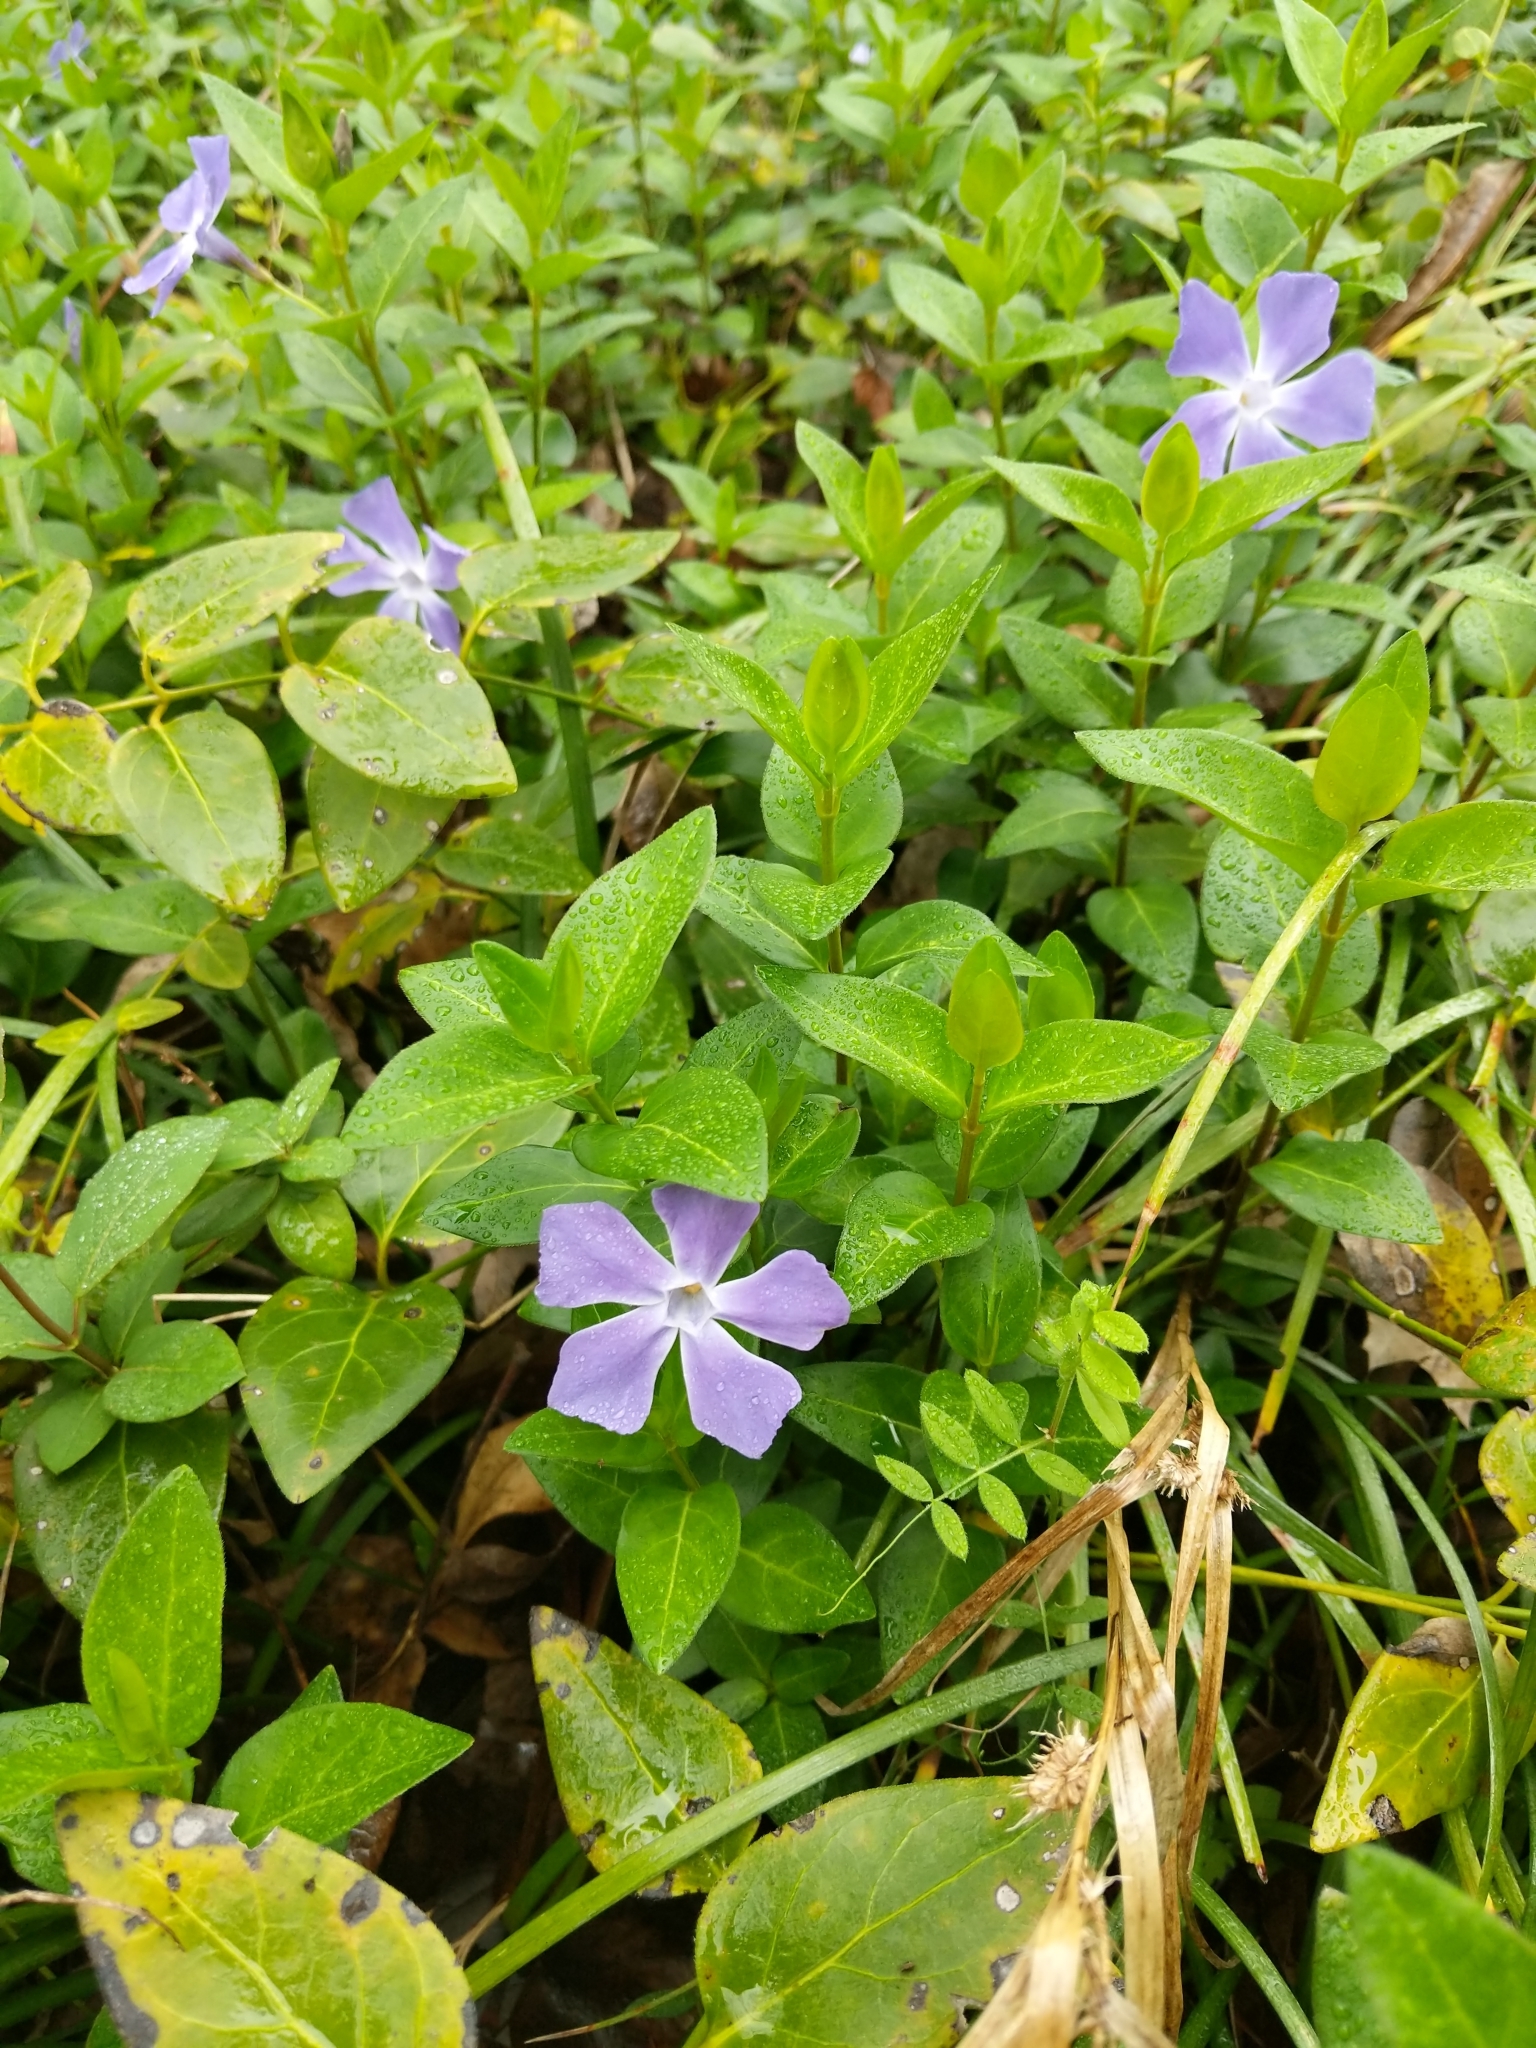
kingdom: Plantae
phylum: Tracheophyta
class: Magnoliopsida
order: Gentianales
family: Apocynaceae
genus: Vinca
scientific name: Vinca major
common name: Greater periwinkle
